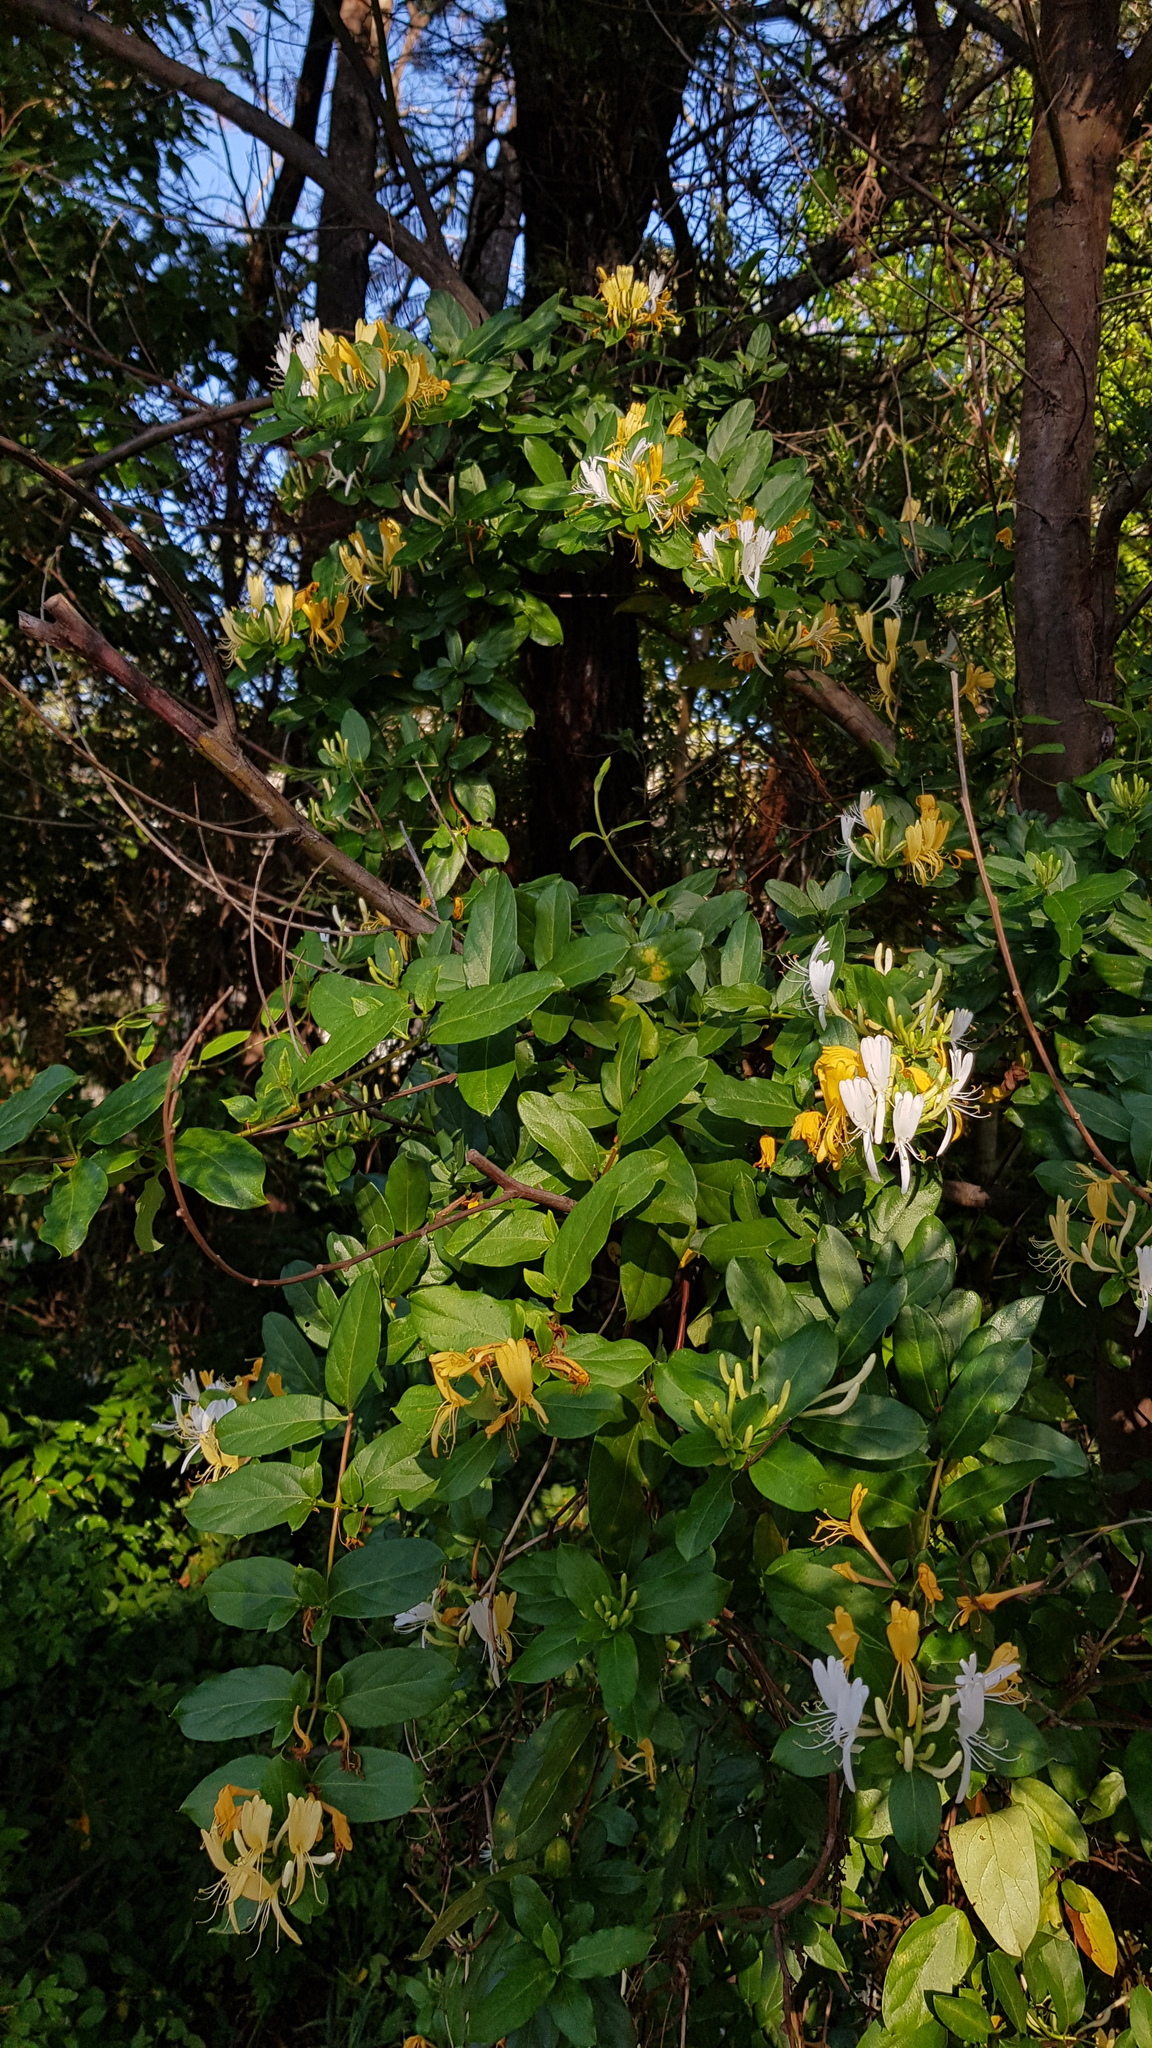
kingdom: Plantae
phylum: Tracheophyta
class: Magnoliopsida
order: Dipsacales
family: Caprifoliaceae
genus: Lonicera
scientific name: Lonicera japonica
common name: Japanese honeysuckle
